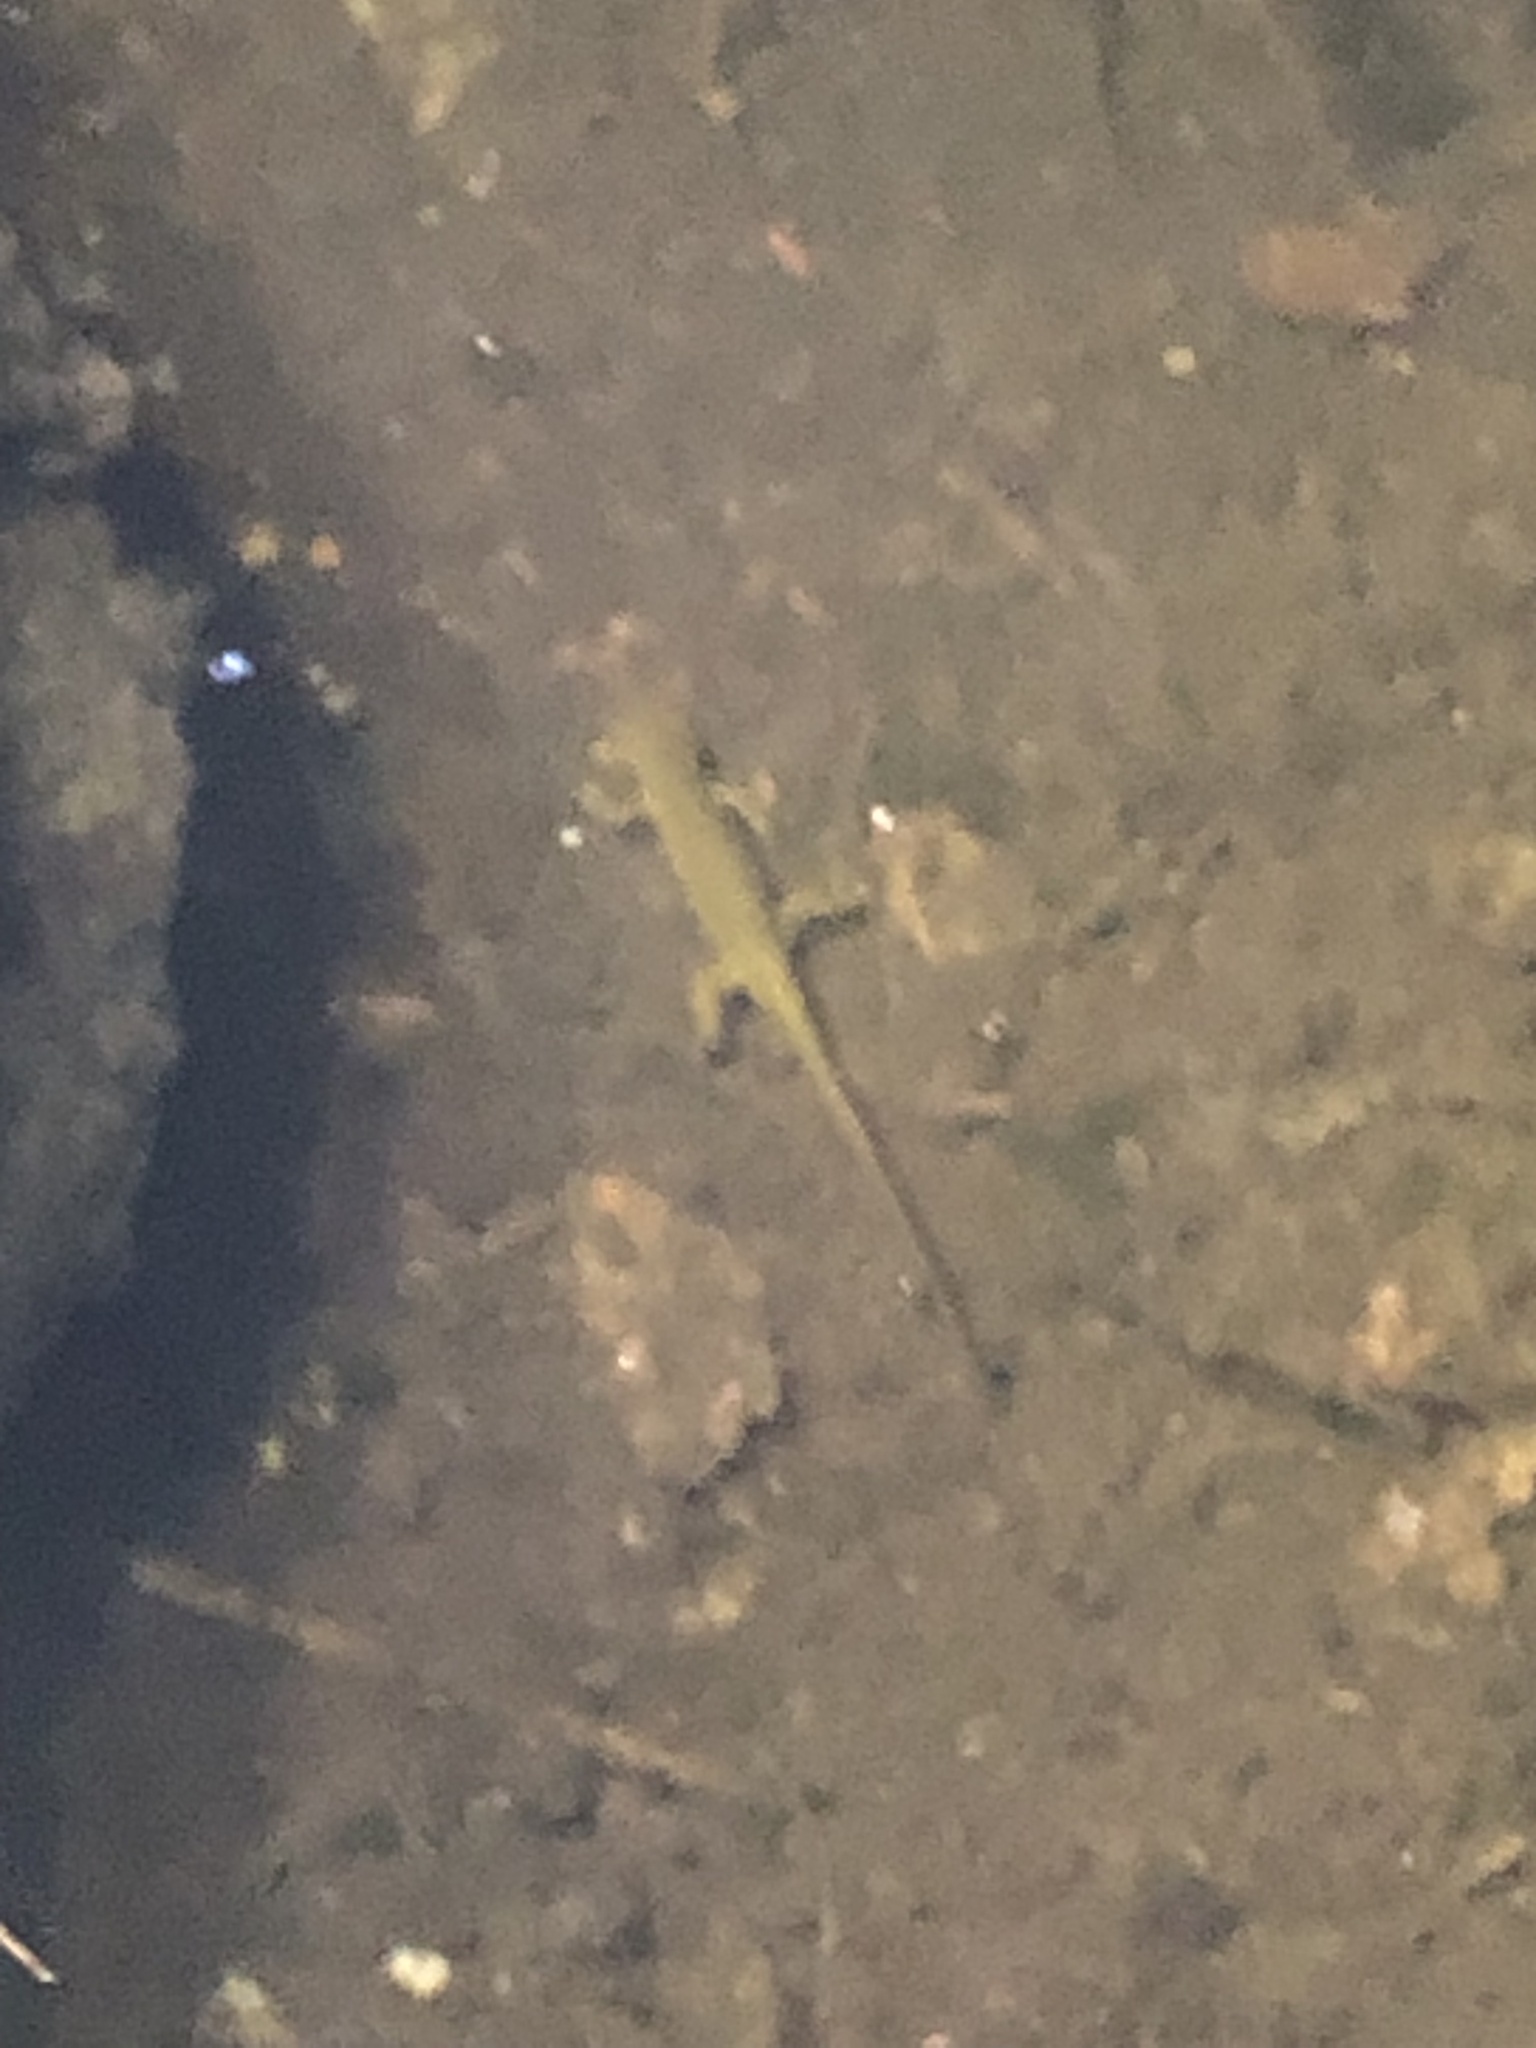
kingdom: Animalia
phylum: Chordata
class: Amphibia
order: Caudata
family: Salamandridae
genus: Notophthalmus
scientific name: Notophthalmus viridescens
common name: Eastern newt
